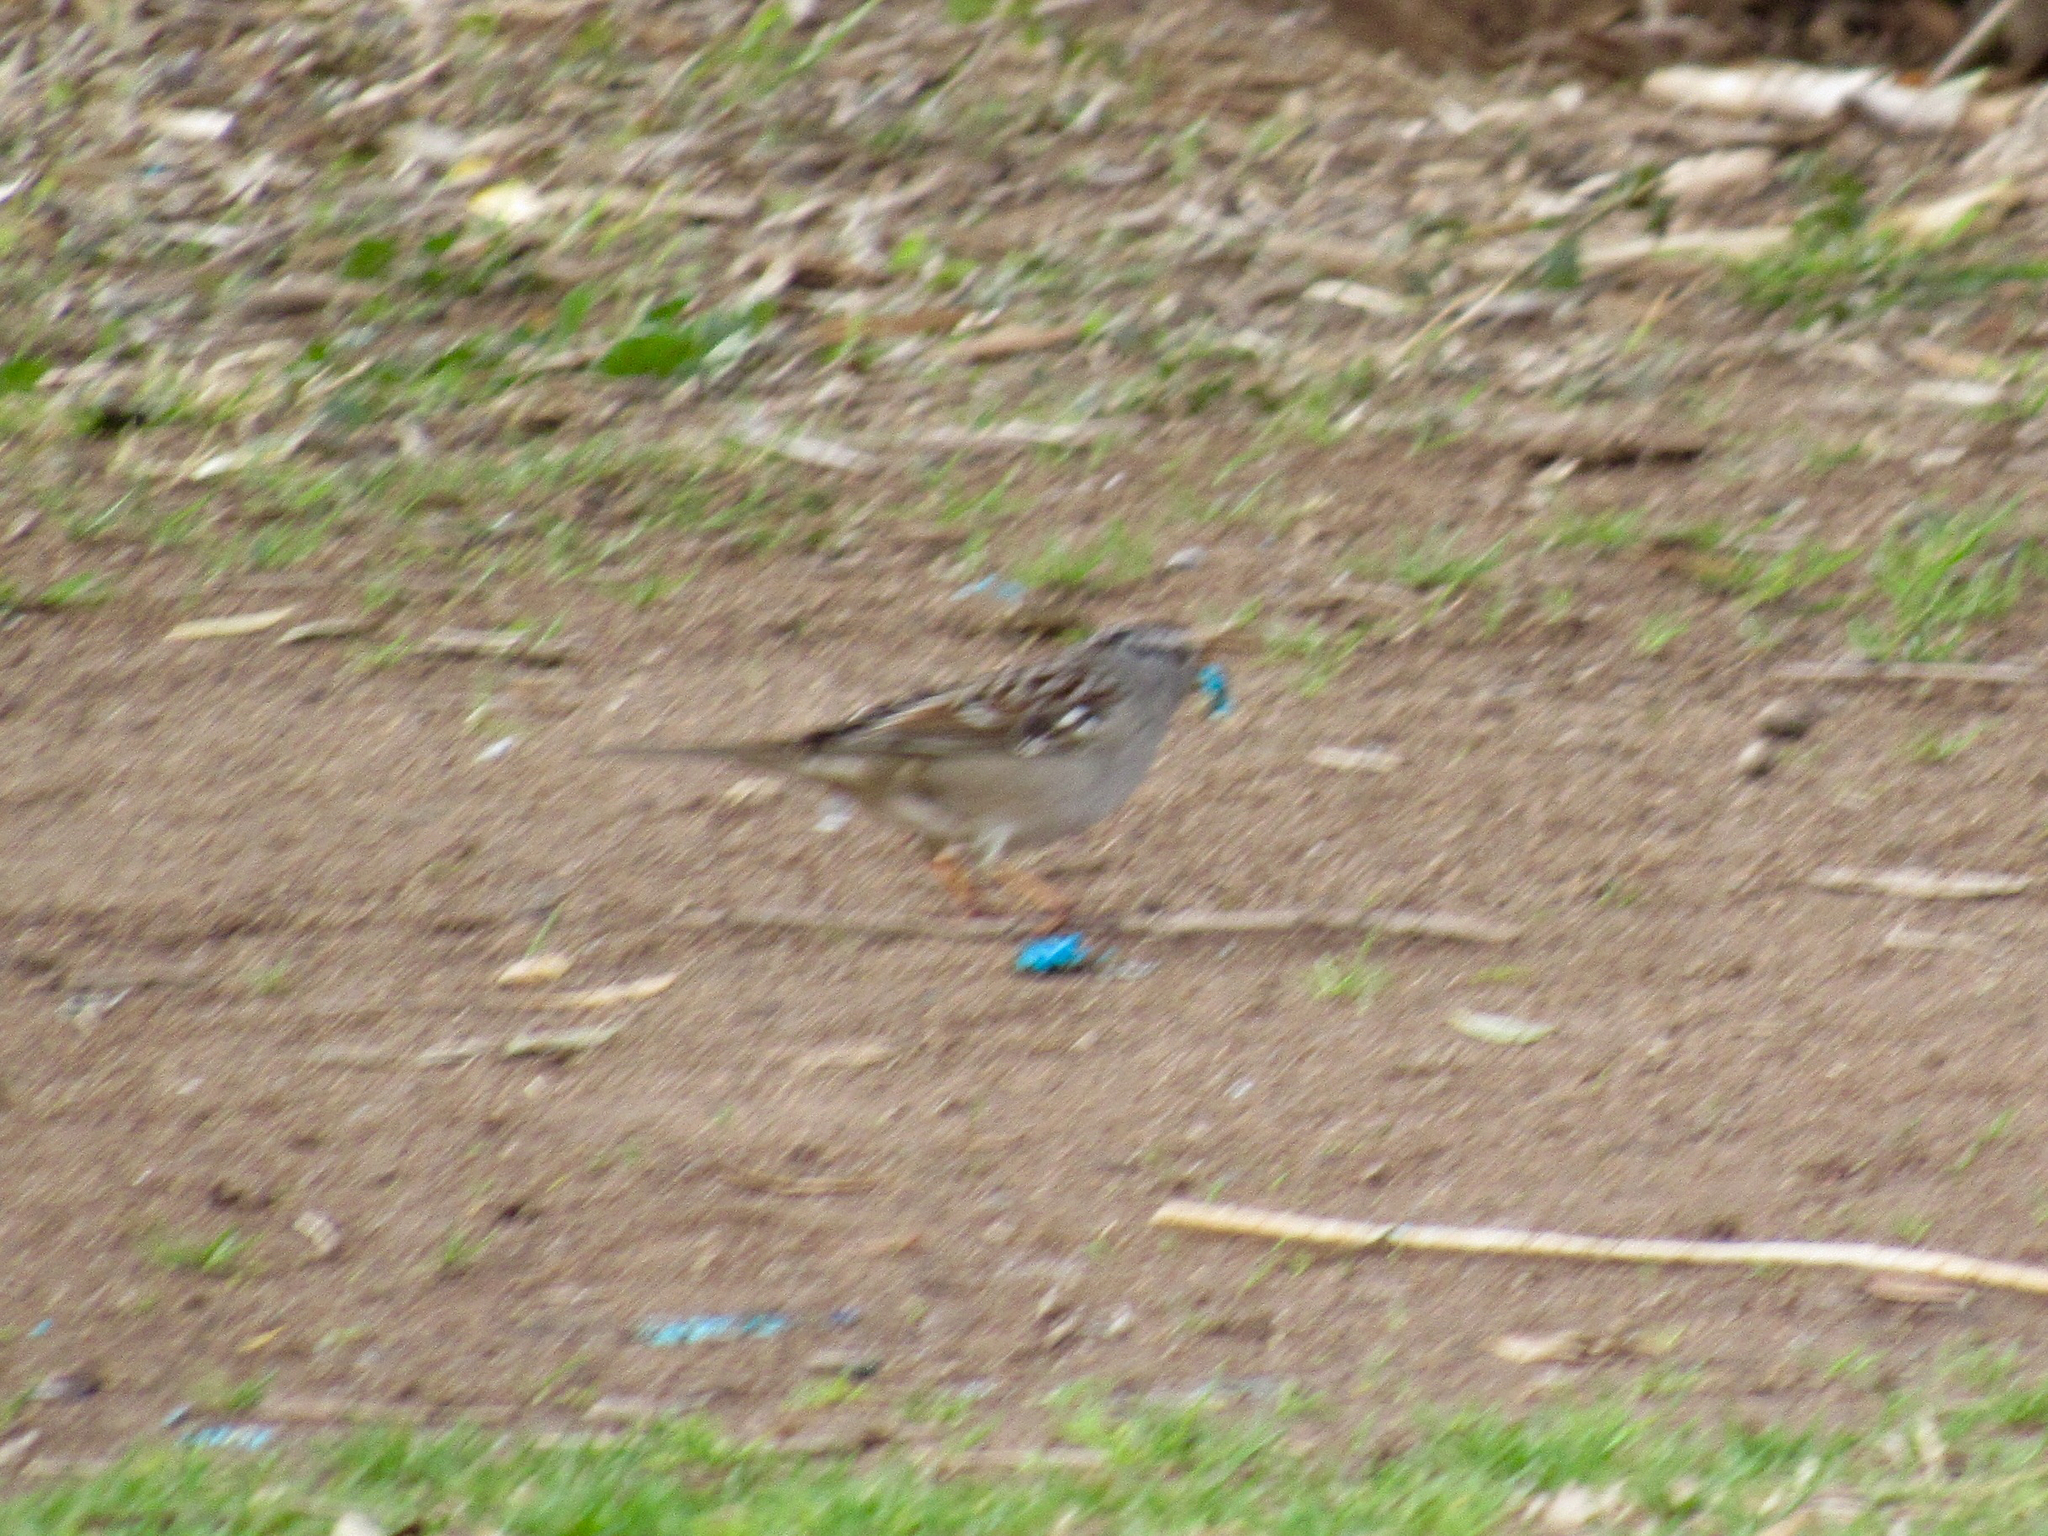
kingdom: Animalia
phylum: Chordata
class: Aves
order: Passeriformes
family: Passerellidae
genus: Zonotrichia
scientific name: Zonotrichia leucophrys
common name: White-crowned sparrow
